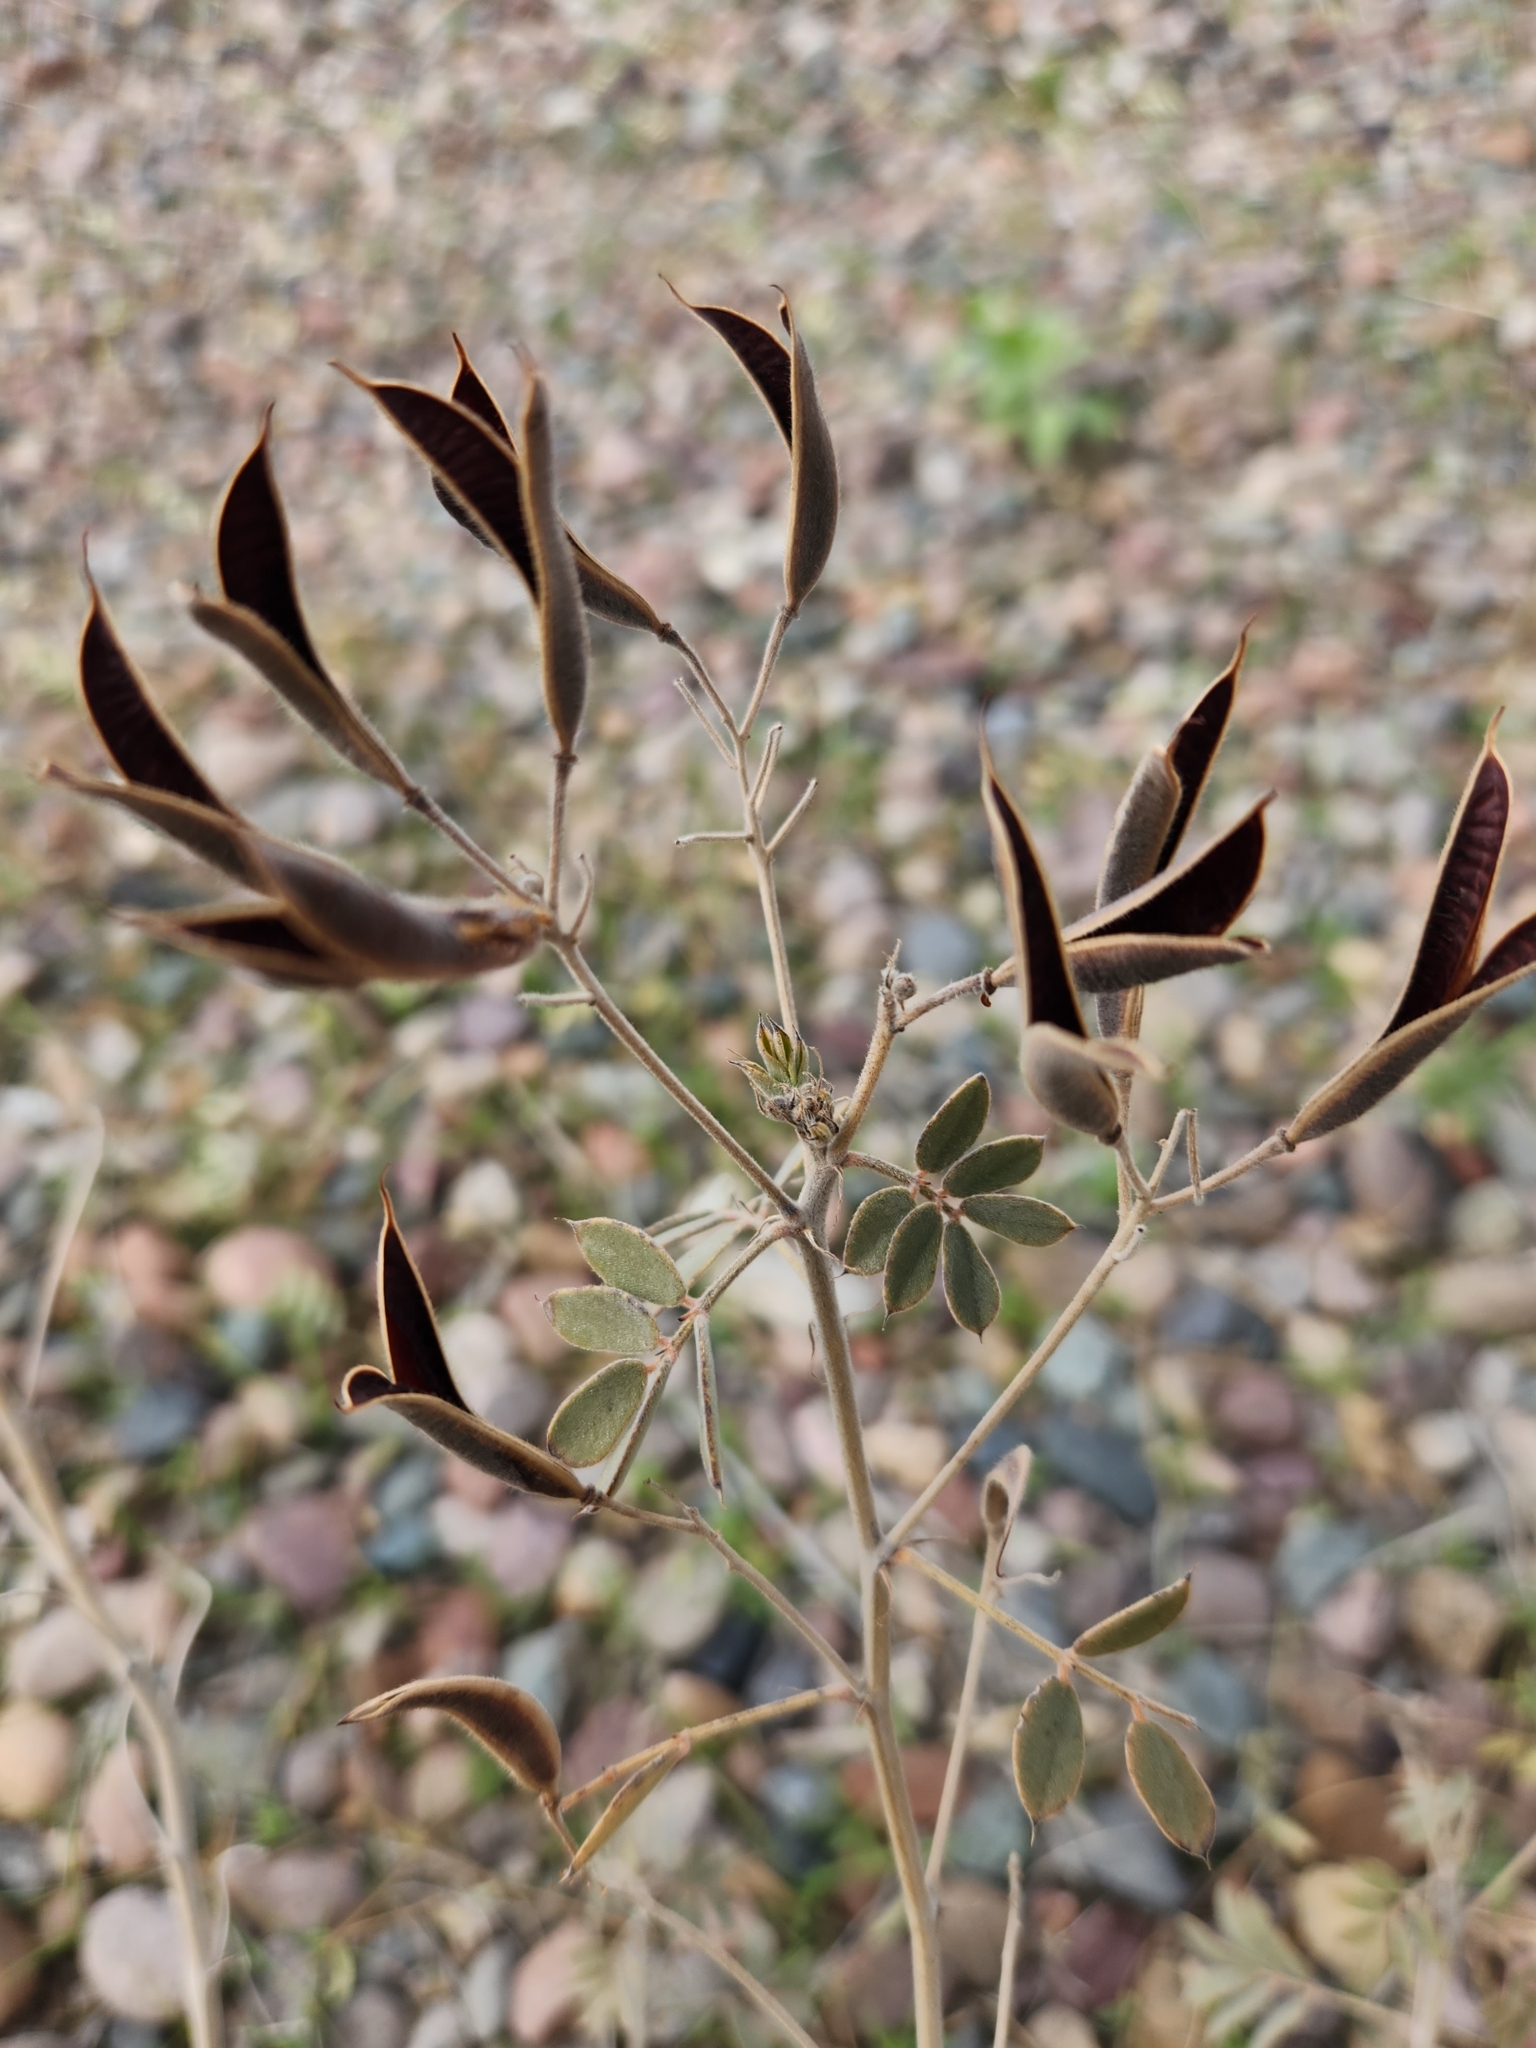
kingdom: Plantae
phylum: Tracheophyta
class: Magnoliopsida
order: Fabales
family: Fabaceae
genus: Senna
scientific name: Senna covesii
